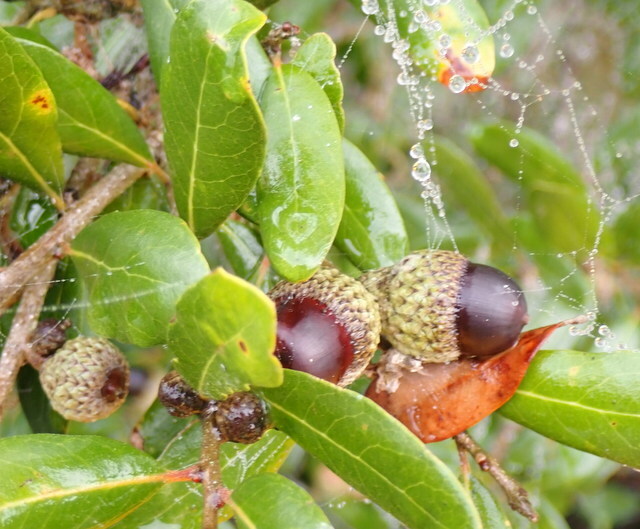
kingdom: Plantae
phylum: Tracheophyta
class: Magnoliopsida
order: Fagales
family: Fagaceae
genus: Quercus
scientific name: Quercus virginiana
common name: Southern live oak
